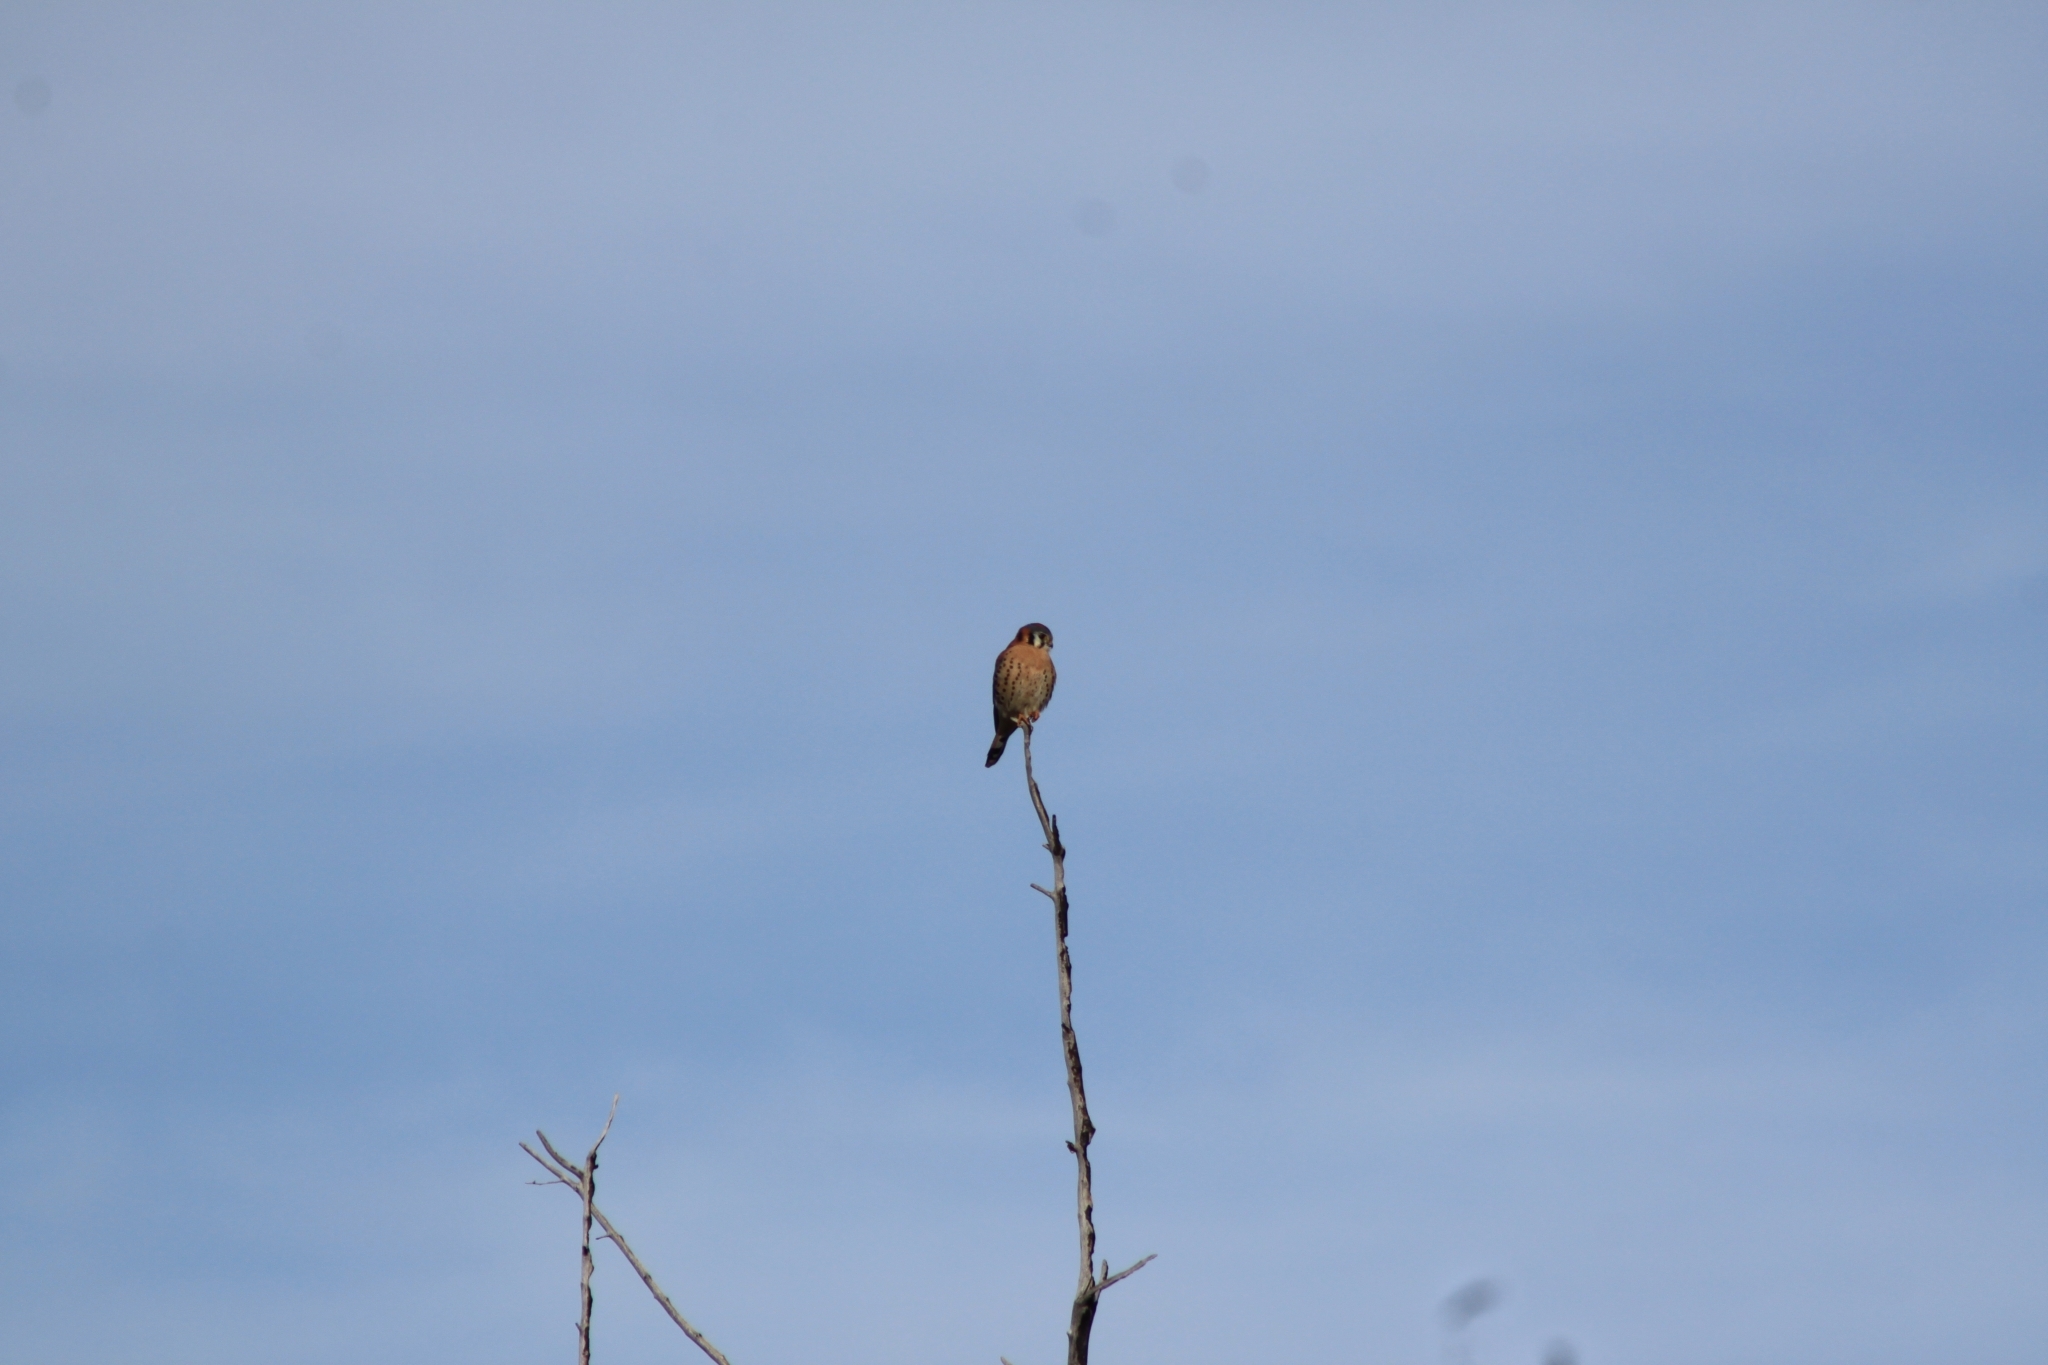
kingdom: Animalia
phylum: Chordata
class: Aves
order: Falconiformes
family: Falconidae
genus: Falco
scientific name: Falco sparverius
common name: American kestrel
